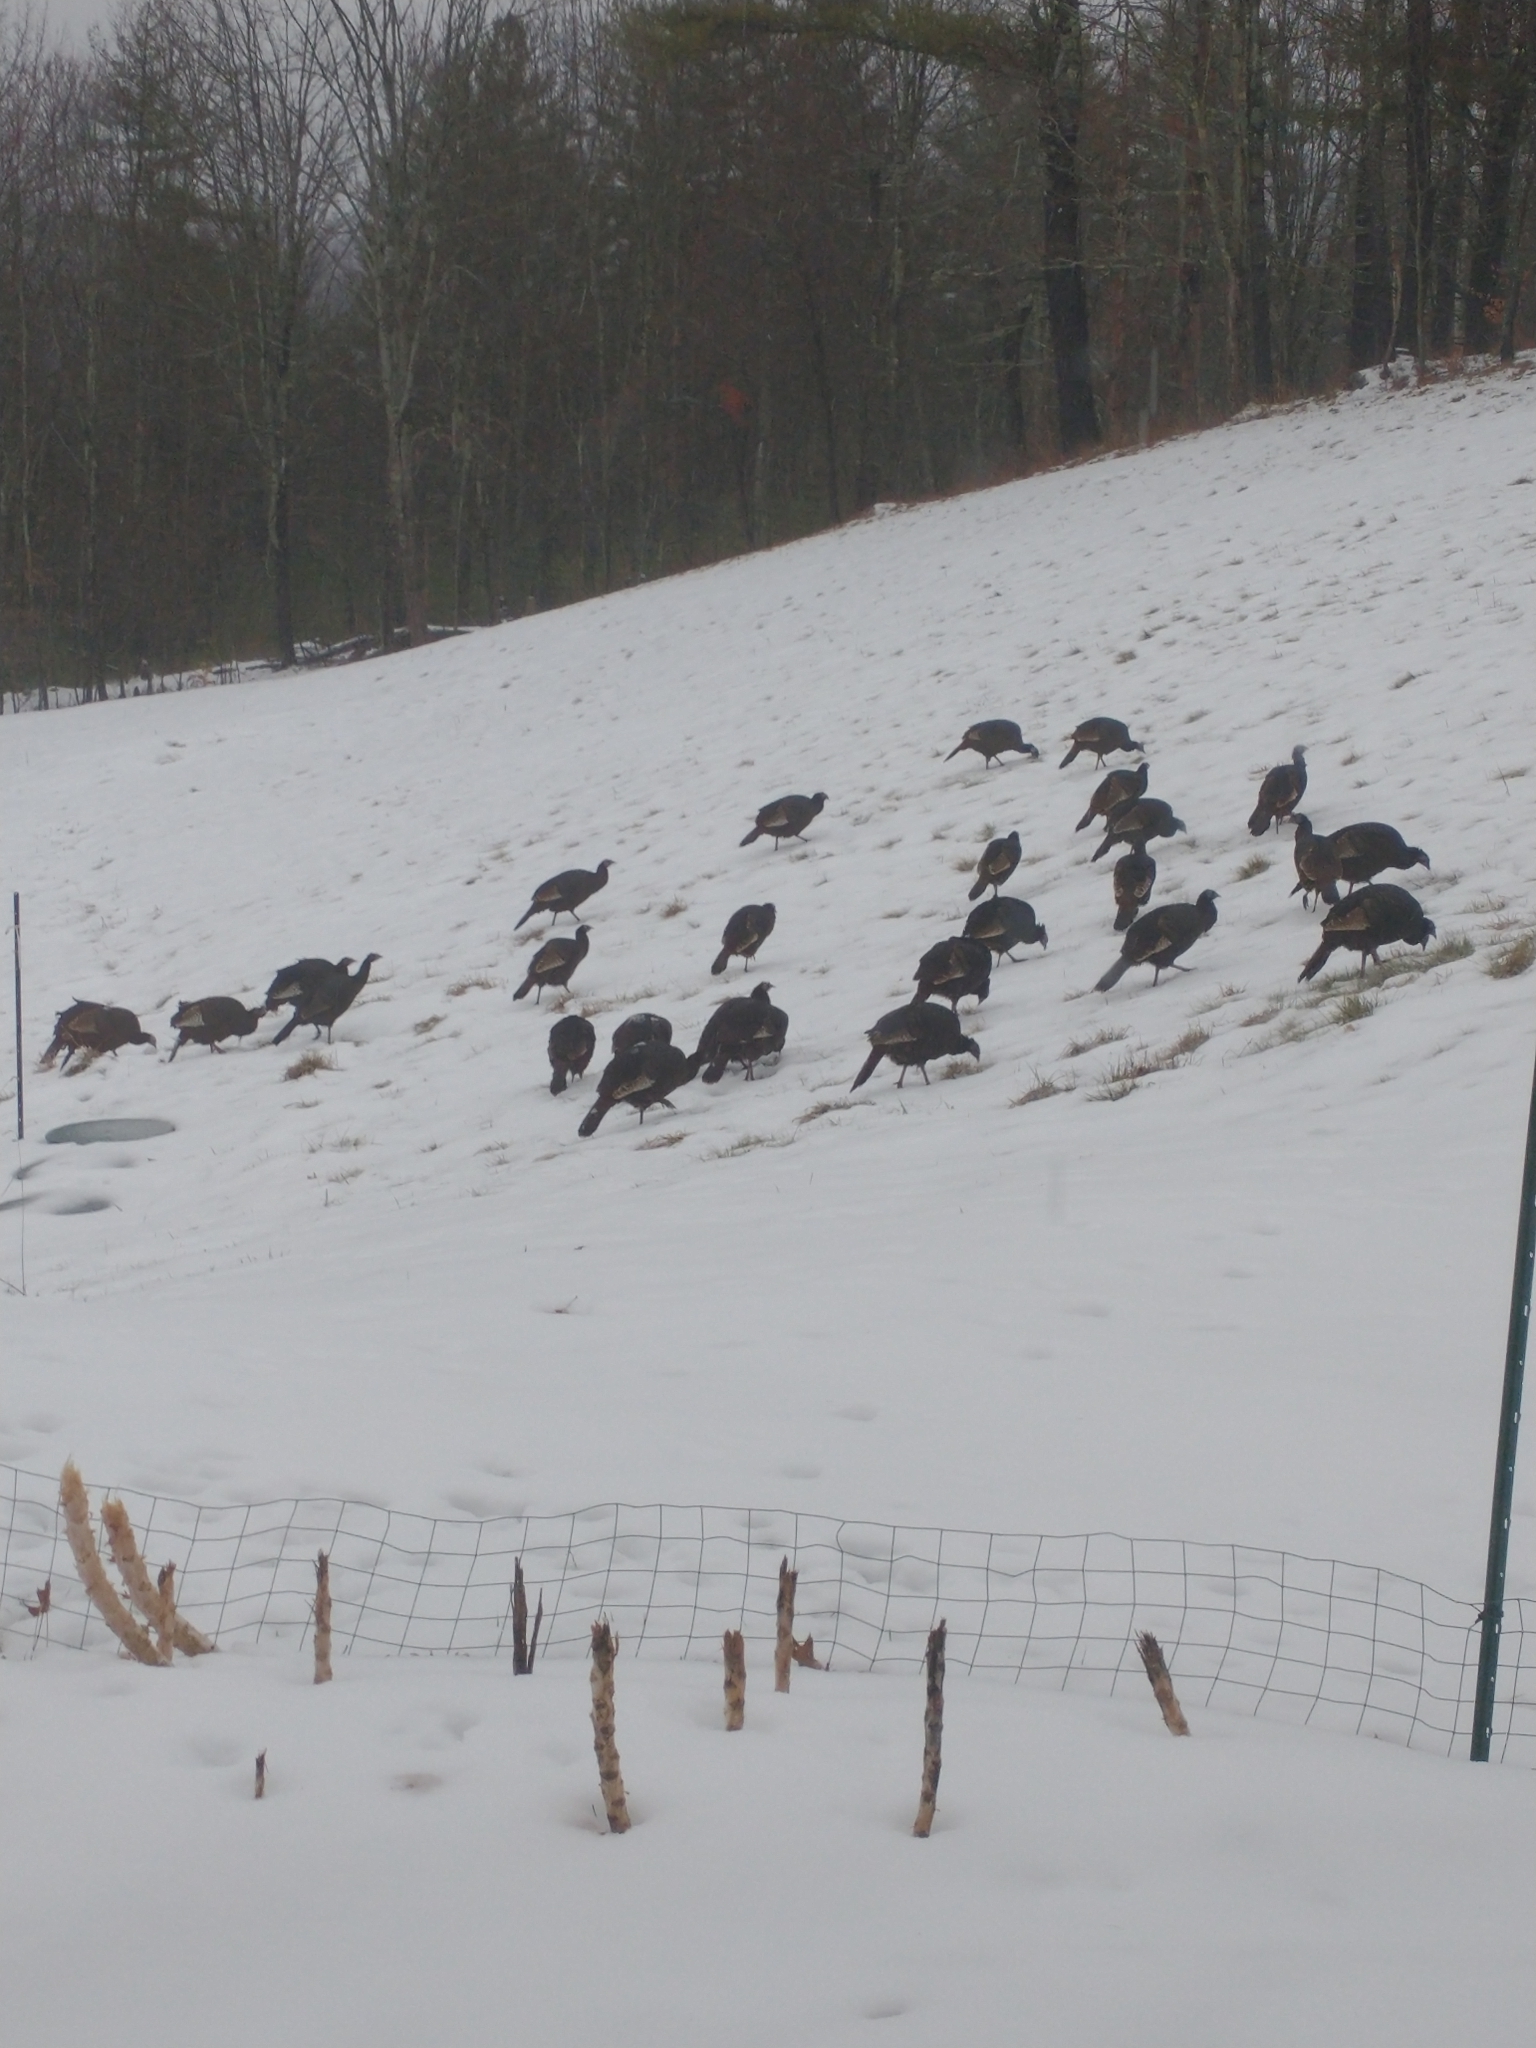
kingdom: Animalia
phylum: Chordata
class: Aves
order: Galliformes
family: Phasianidae
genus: Meleagris
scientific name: Meleagris gallopavo
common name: Wild turkey
